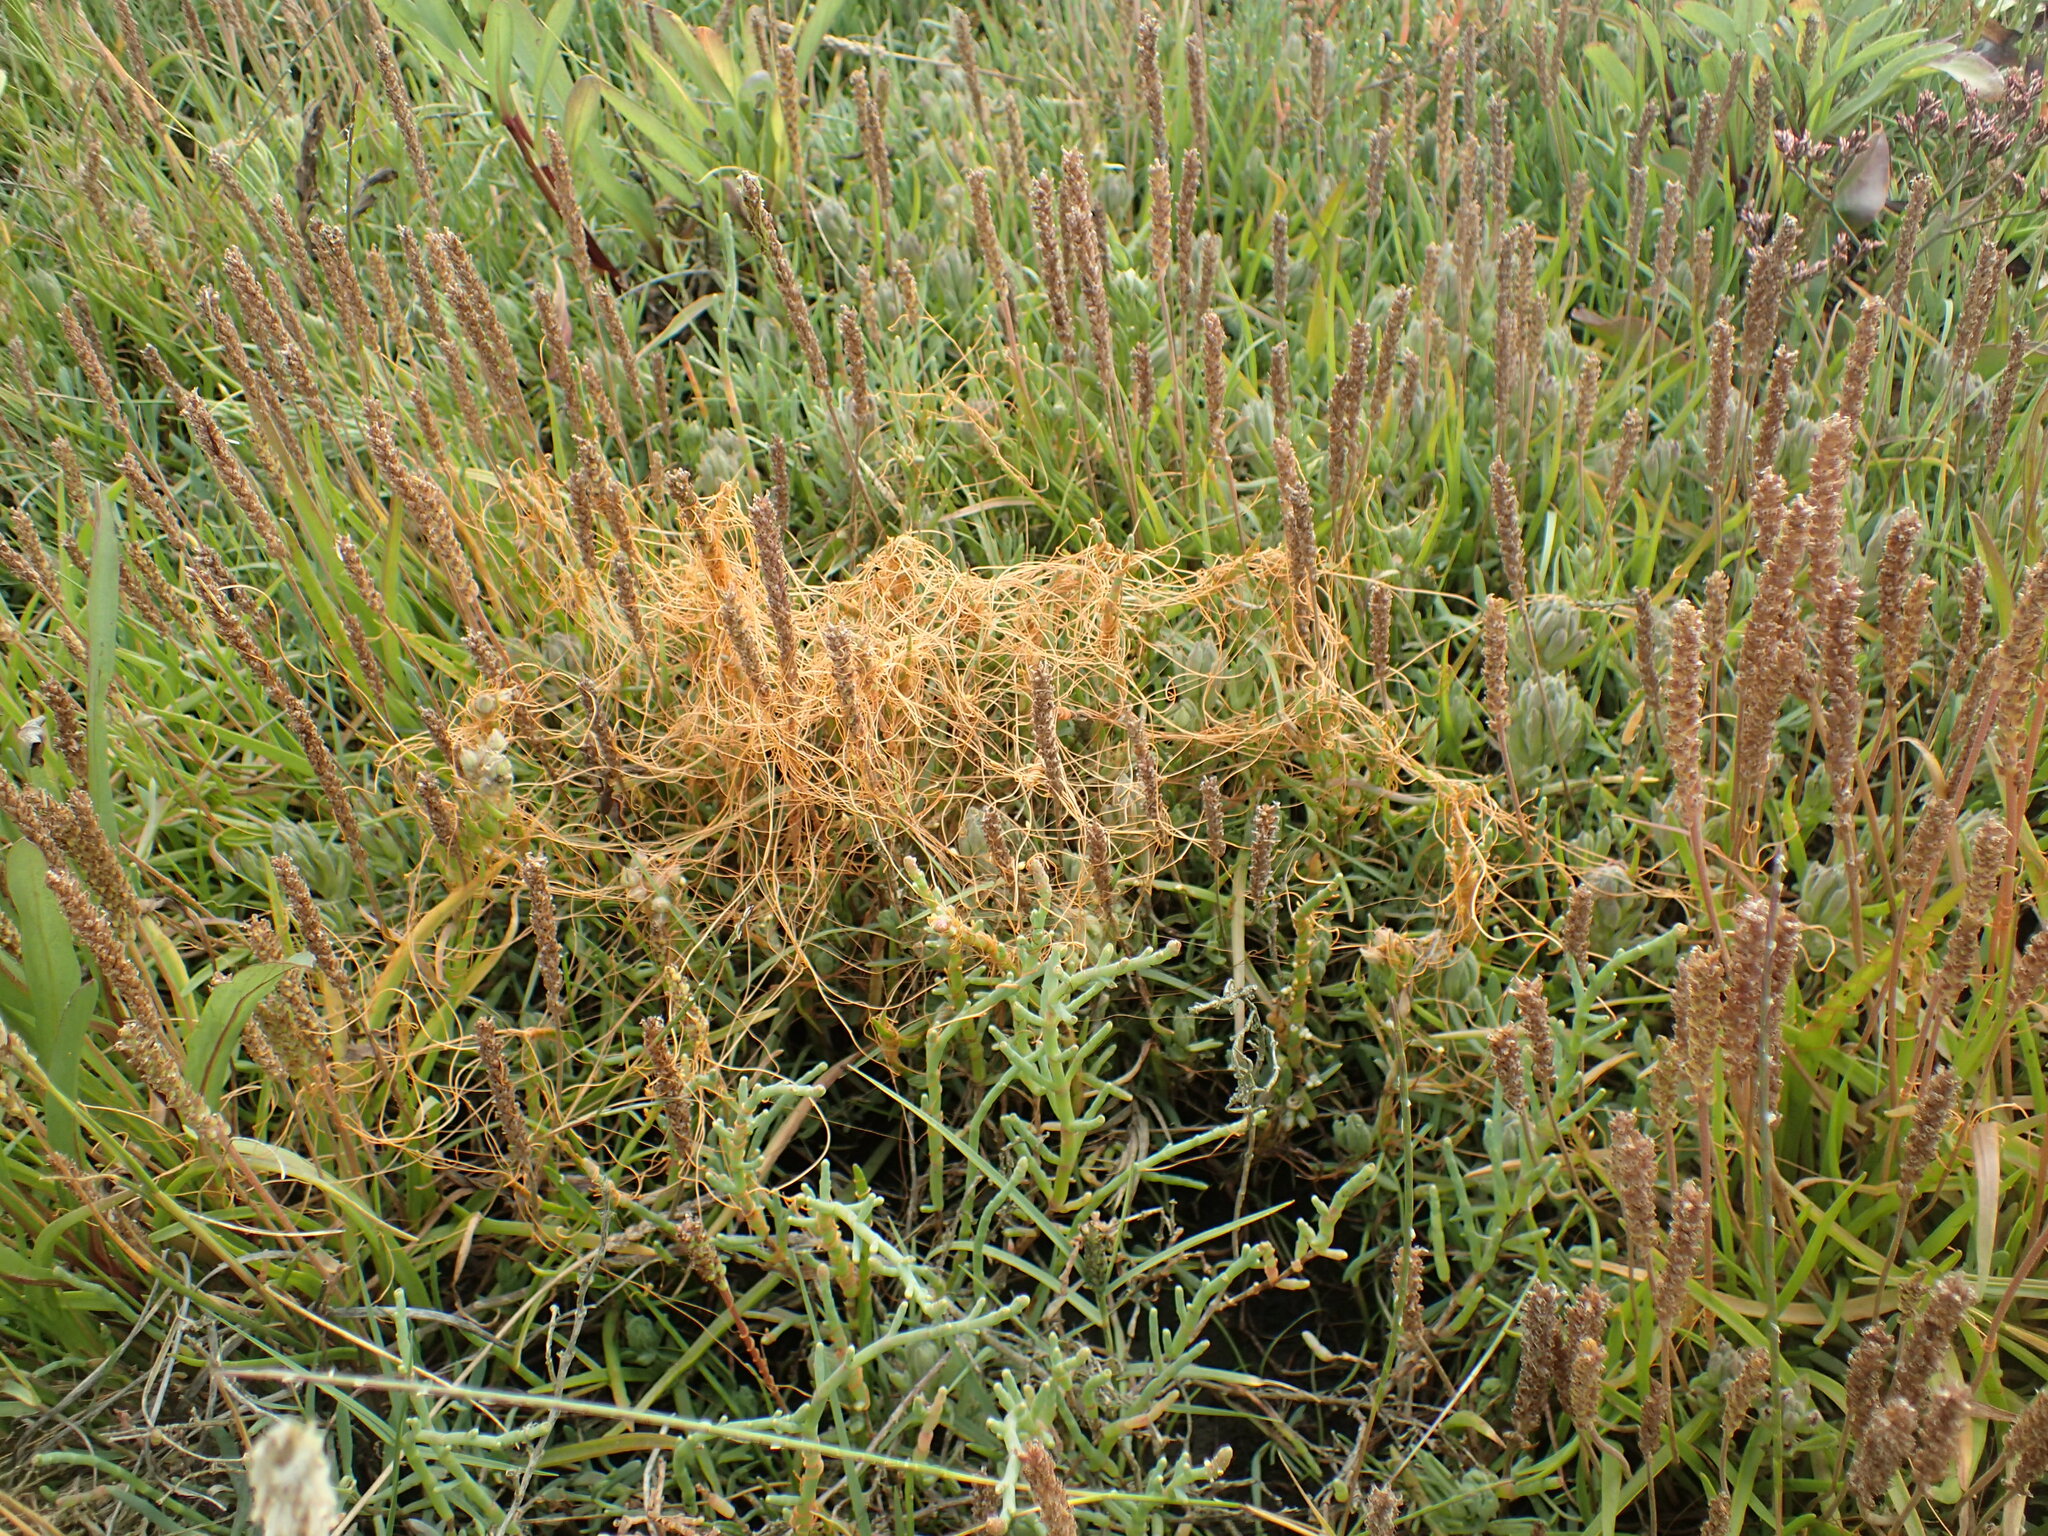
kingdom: Plantae
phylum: Tracheophyta
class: Magnoliopsida
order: Solanales
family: Convolvulaceae
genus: Cuscuta
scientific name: Cuscuta pacifica
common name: Large saltmarsh dodder
